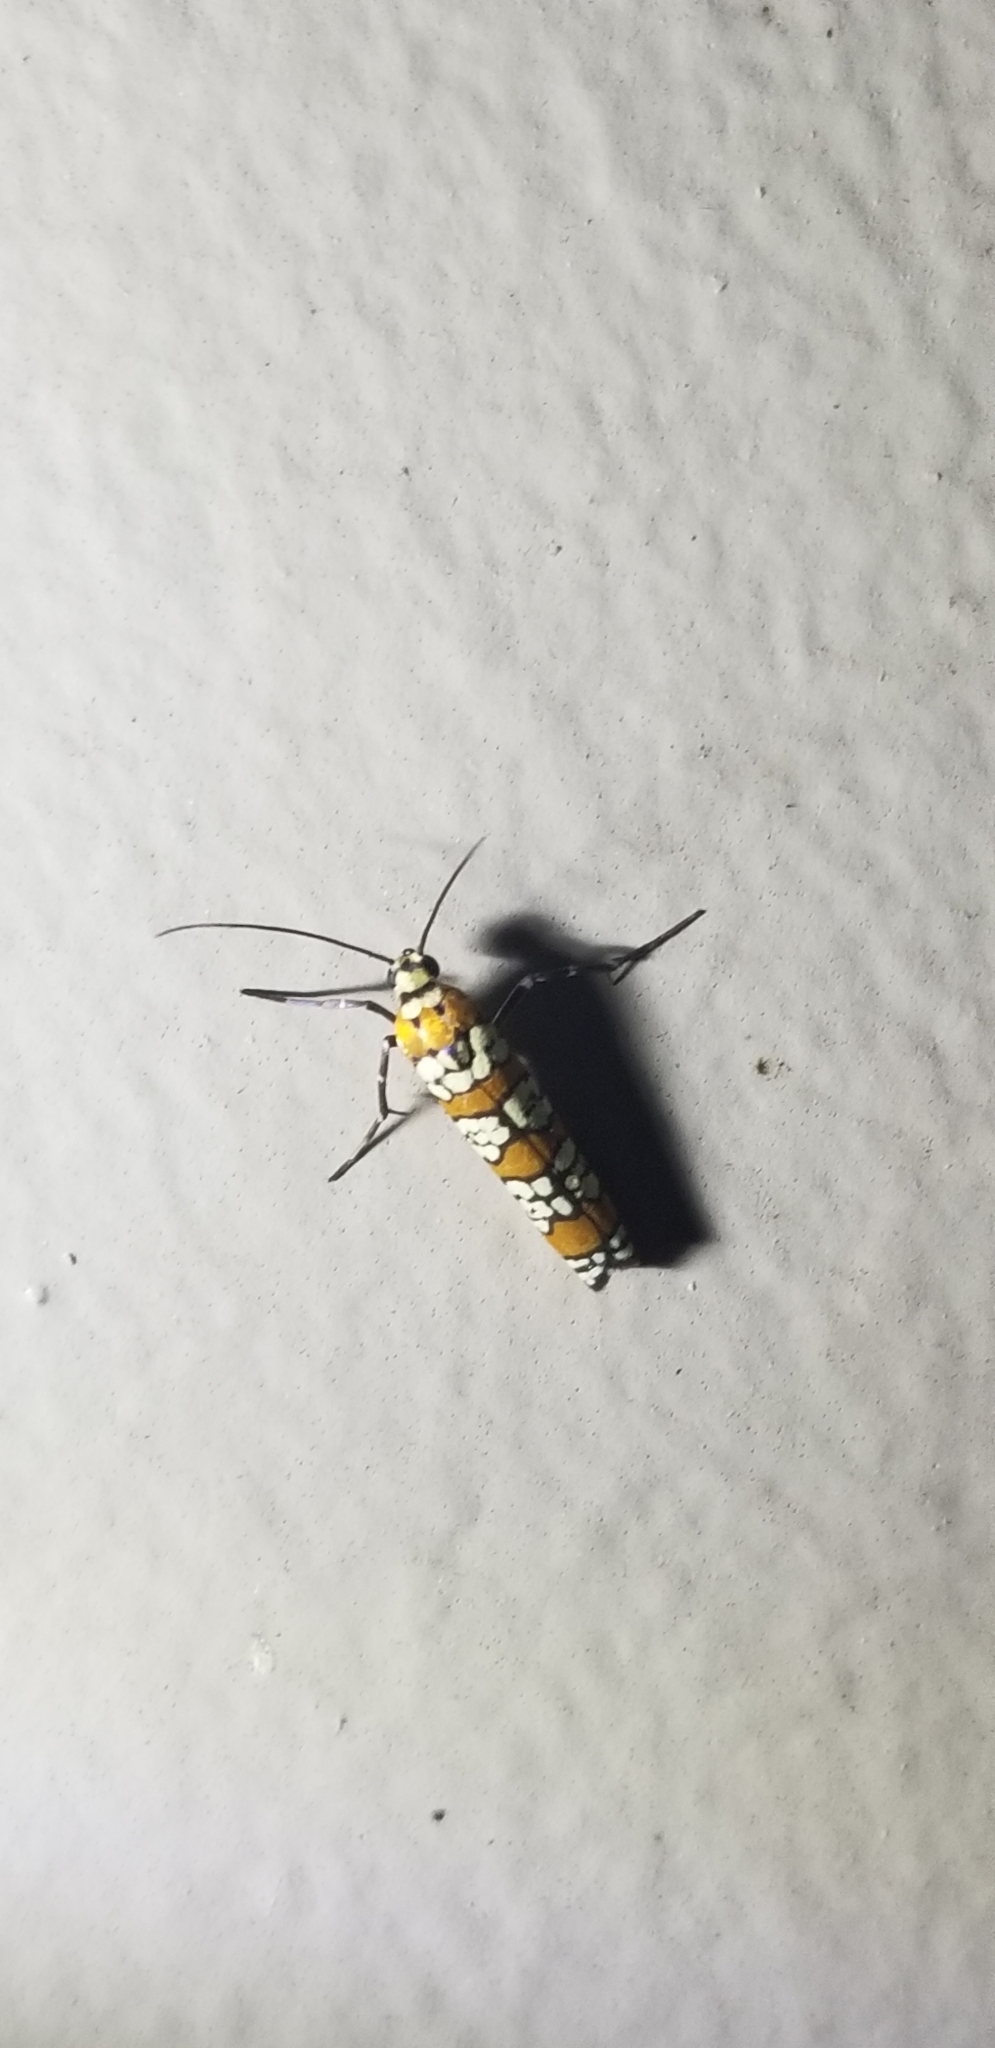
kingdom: Animalia
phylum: Arthropoda
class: Insecta
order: Lepidoptera
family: Attevidae
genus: Atteva
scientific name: Atteva punctella
